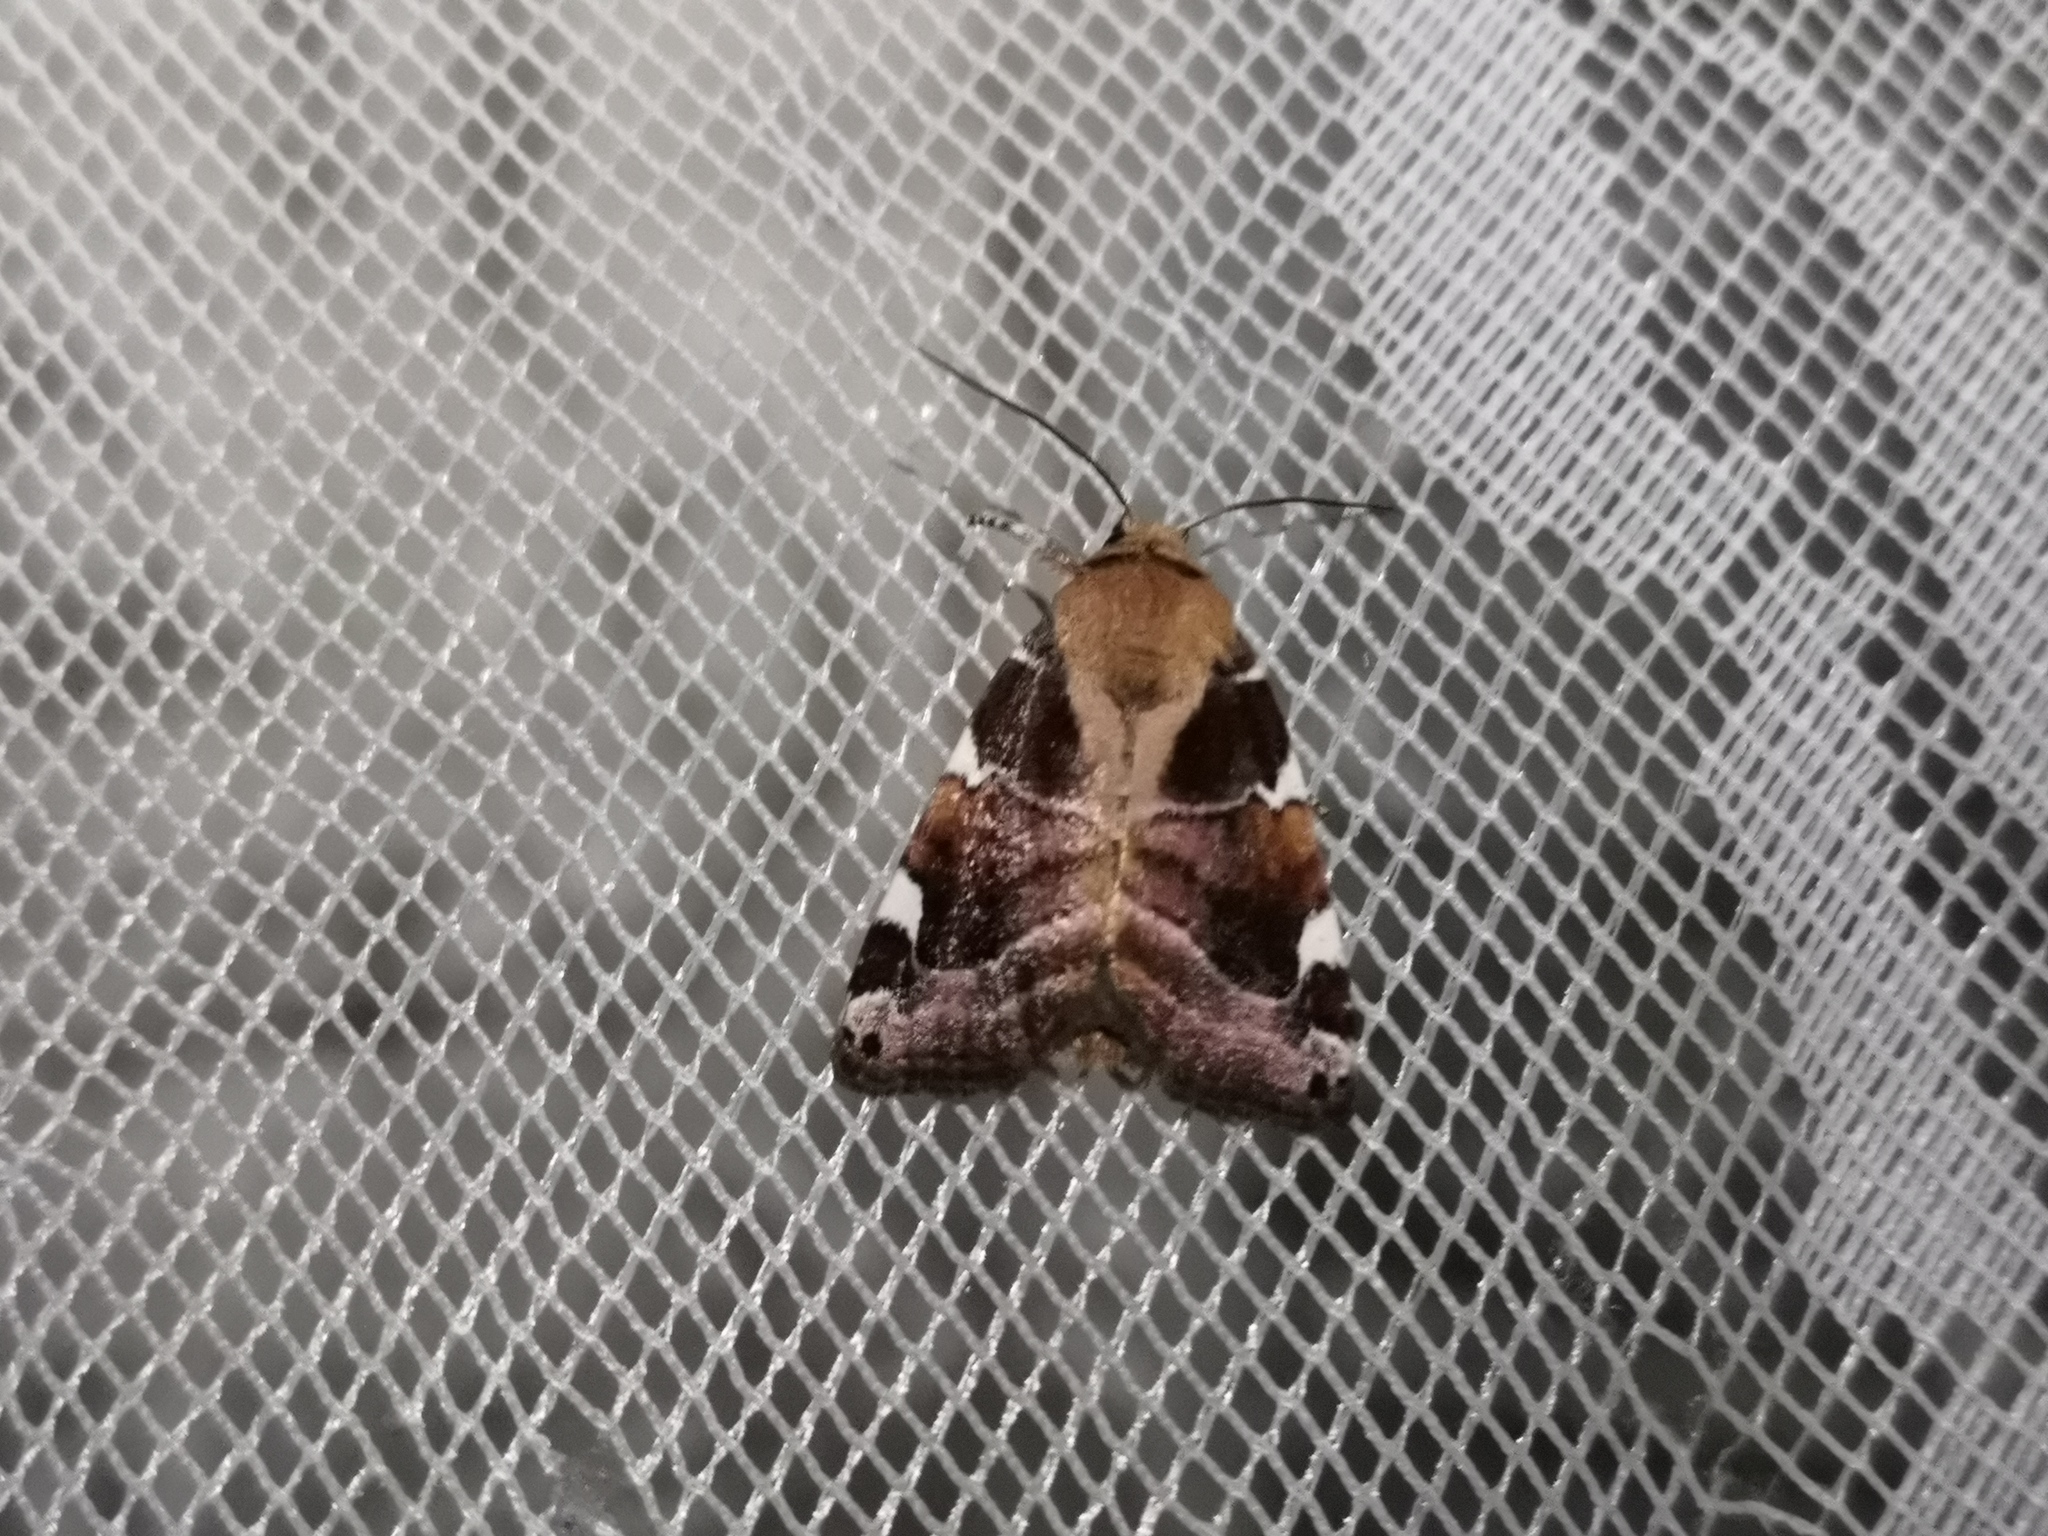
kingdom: Animalia
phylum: Arthropoda
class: Insecta
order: Lepidoptera
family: Noctuidae
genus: Cosmia
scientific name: Cosmia diffinis
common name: White-spotted pinion
